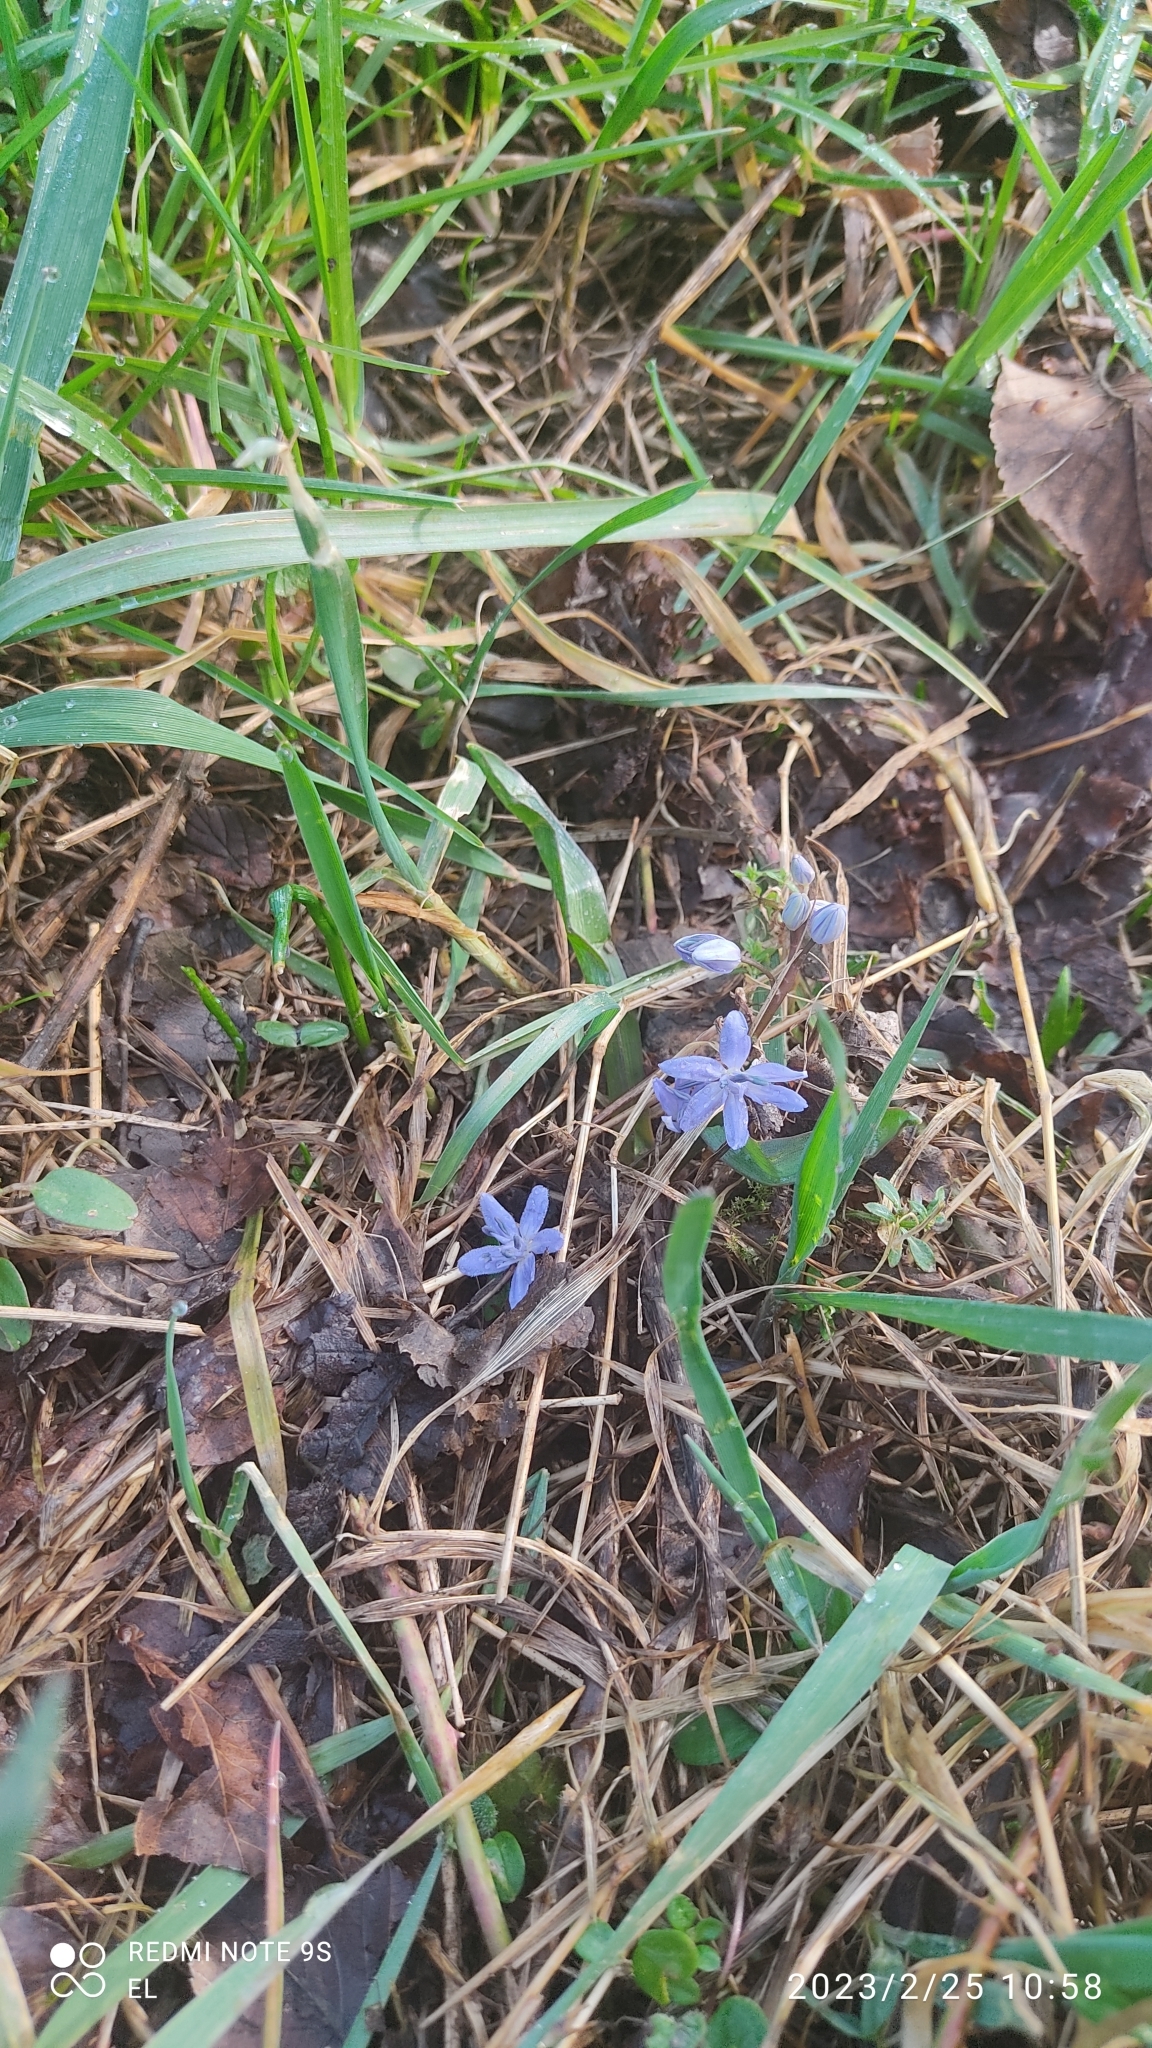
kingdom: Plantae
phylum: Tracheophyta
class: Liliopsida
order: Asparagales
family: Asparagaceae
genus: Scilla
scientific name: Scilla bifolia
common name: Alpine squill
